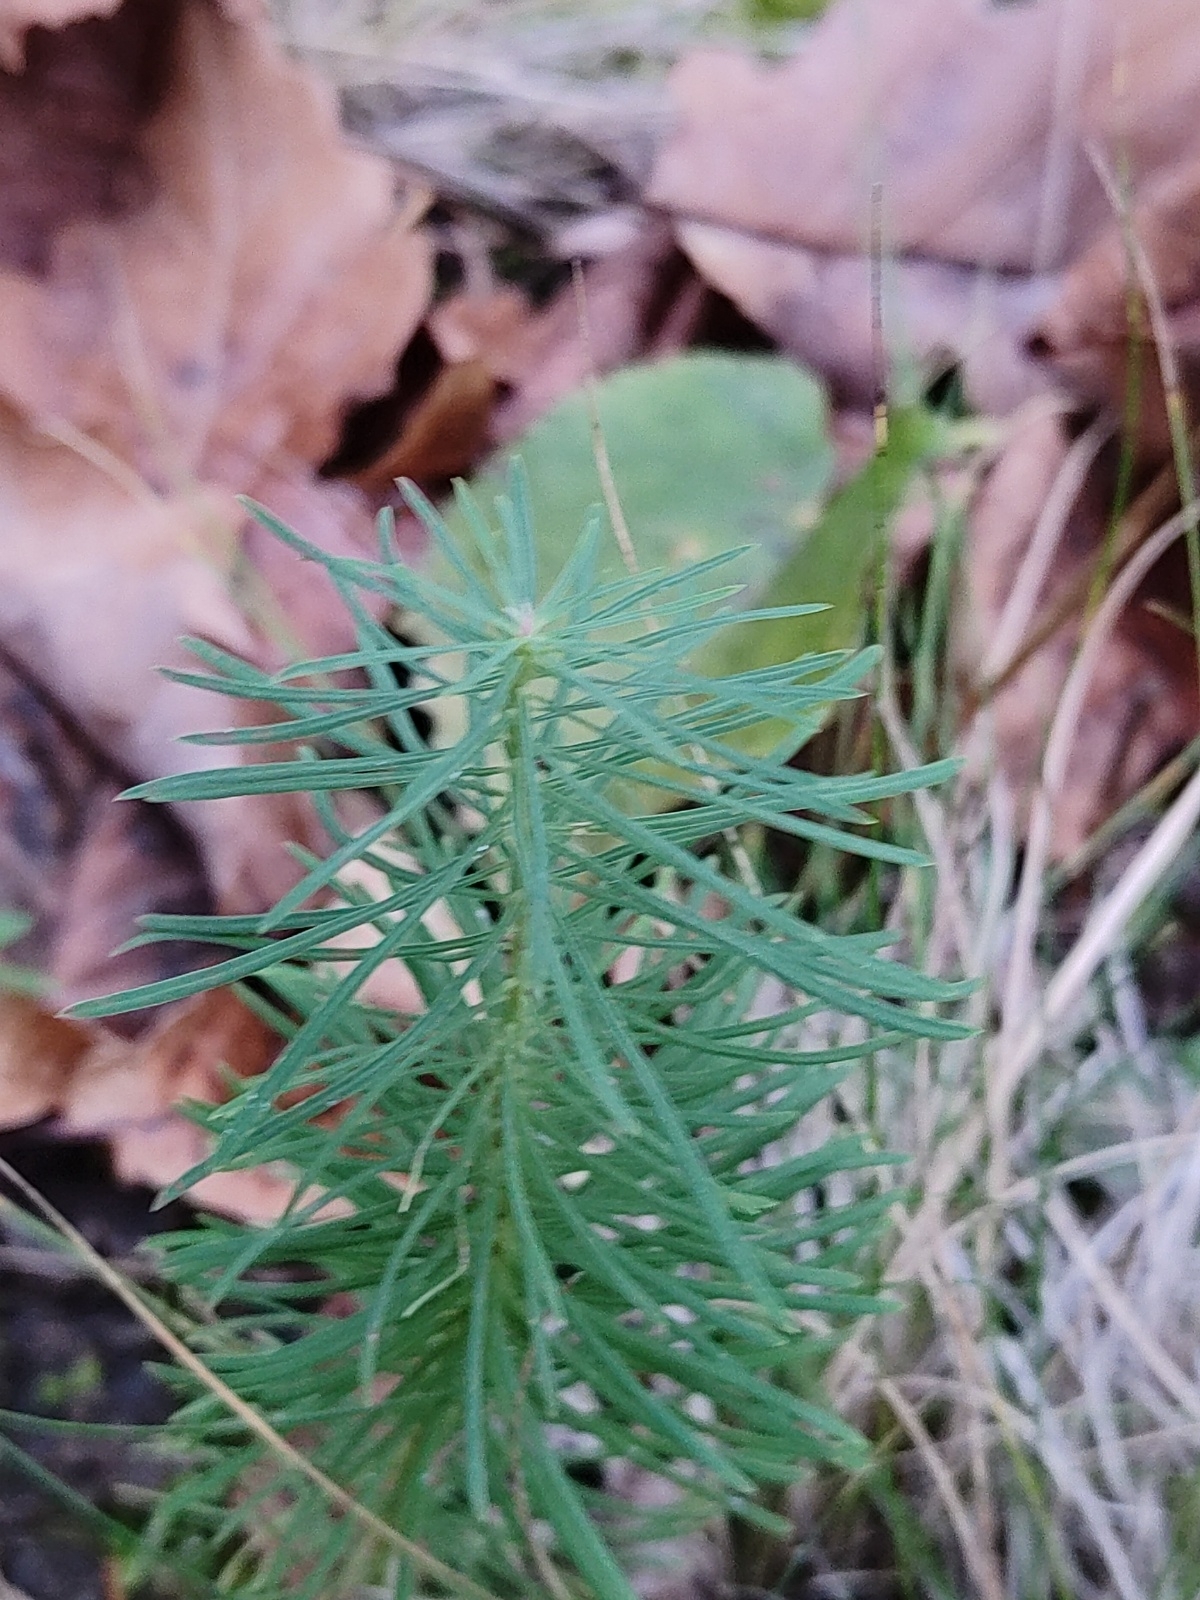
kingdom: Plantae
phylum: Tracheophyta
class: Magnoliopsida
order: Malpighiales
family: Euphorbiaceae
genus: Euphorbia
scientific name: Euphorbia cyparissias
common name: Cypress spurge
